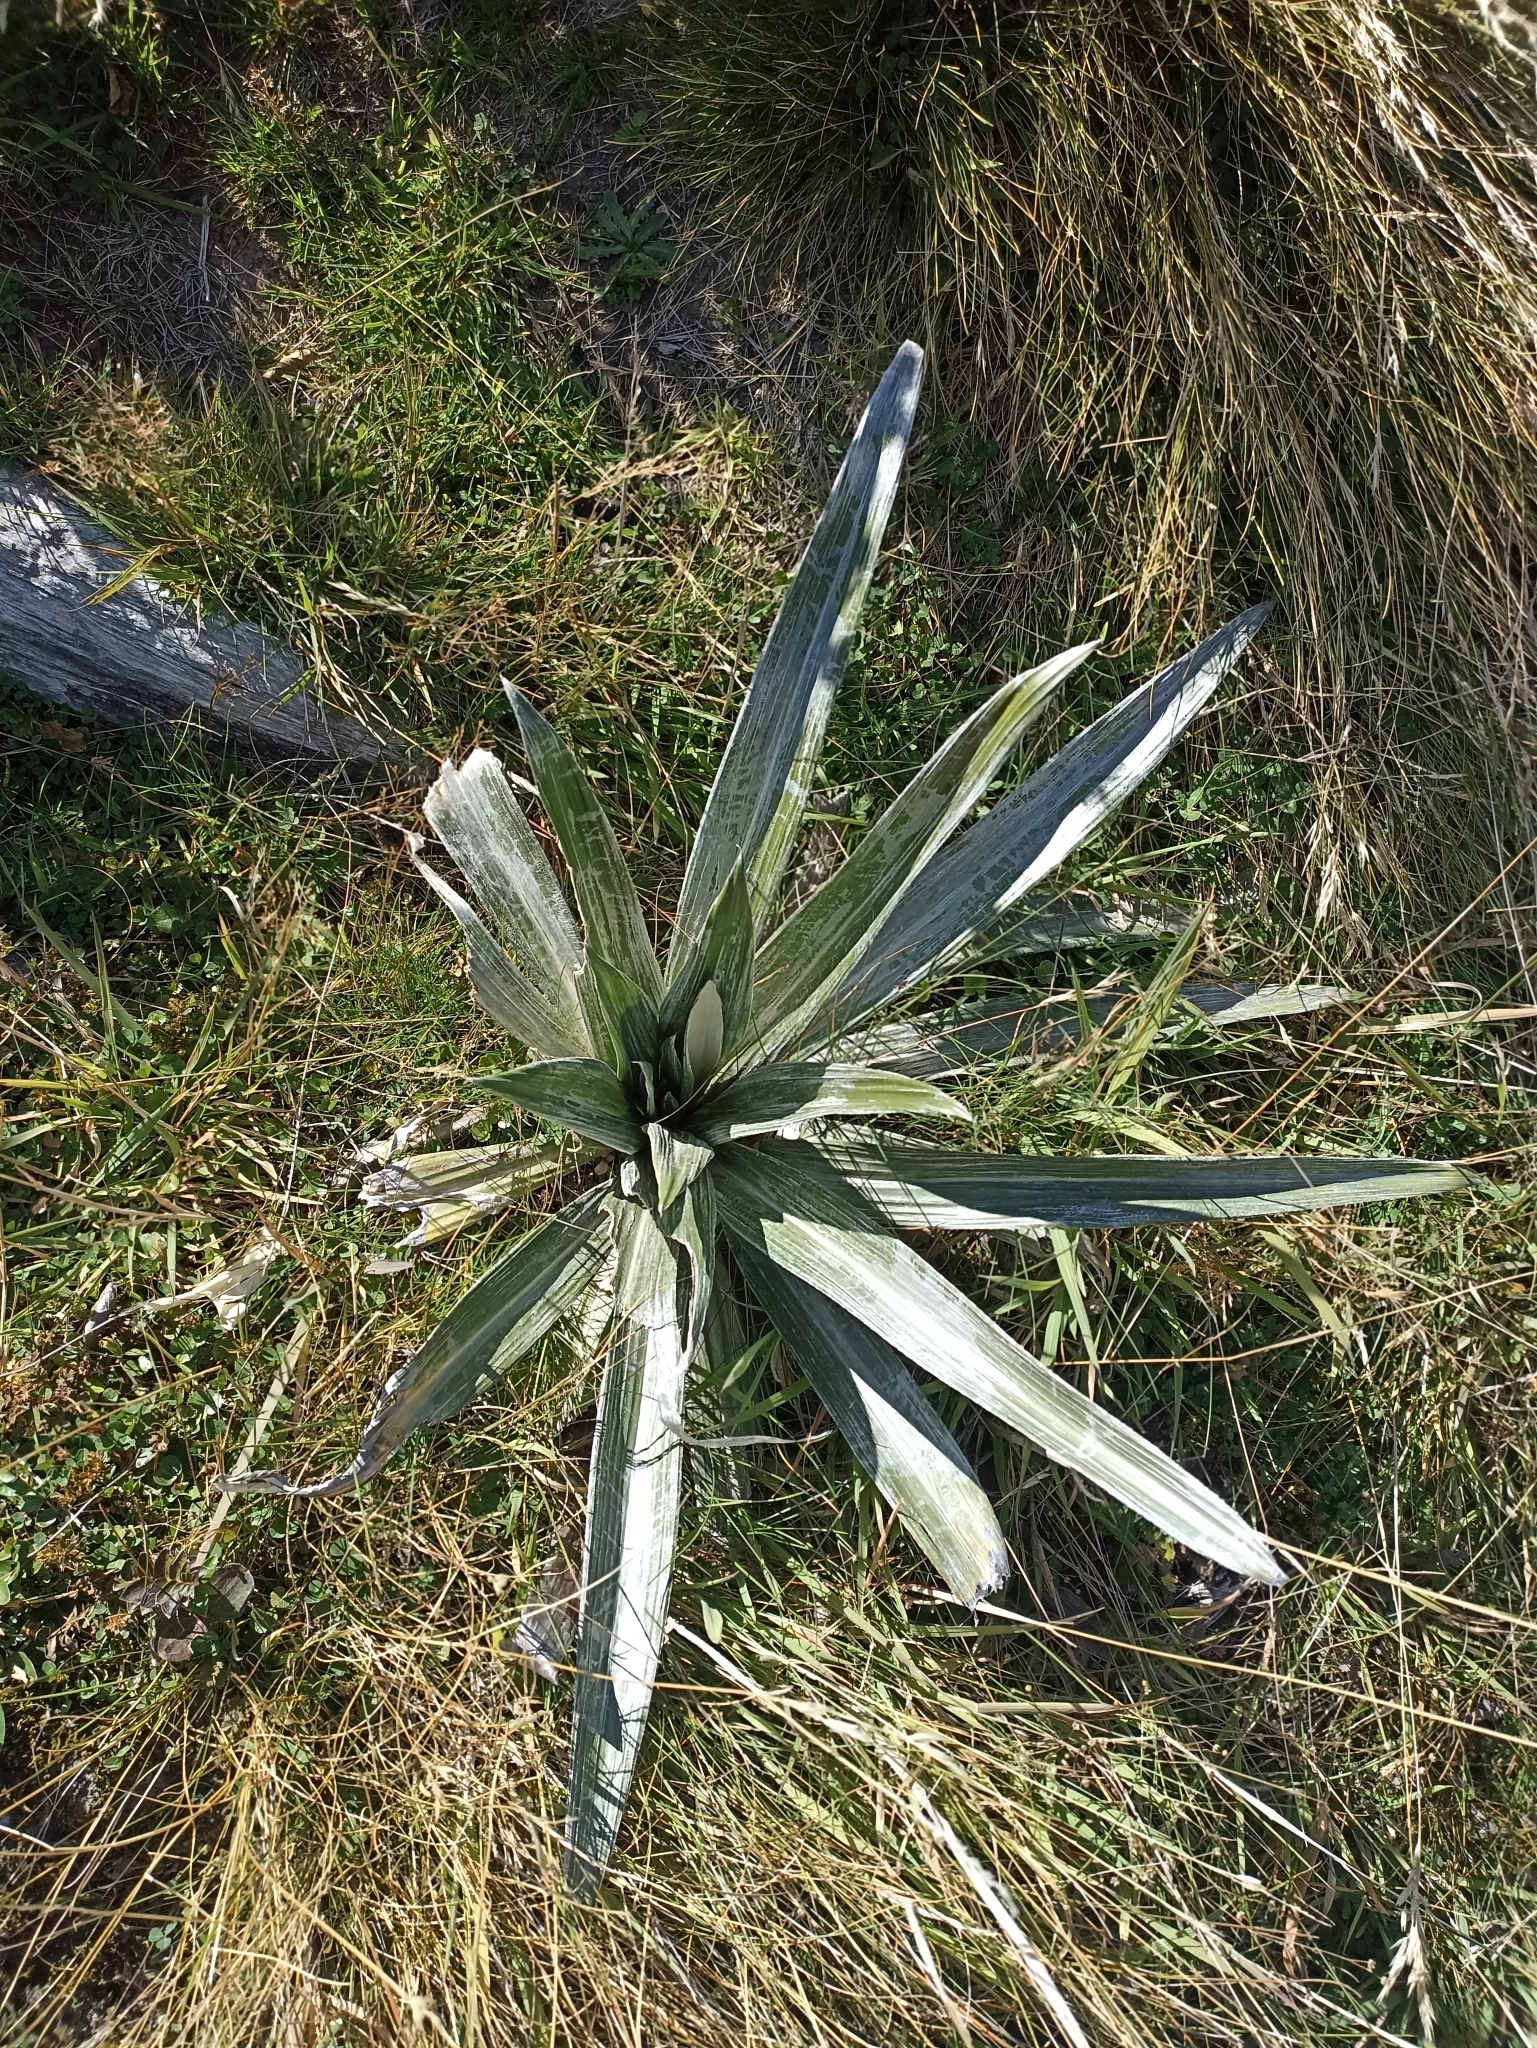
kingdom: Plantae
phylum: Tracheophyta
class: Magnoliopsida
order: Asterales
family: Asteraceae
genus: Celmisia
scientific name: Celmisia semicordata
